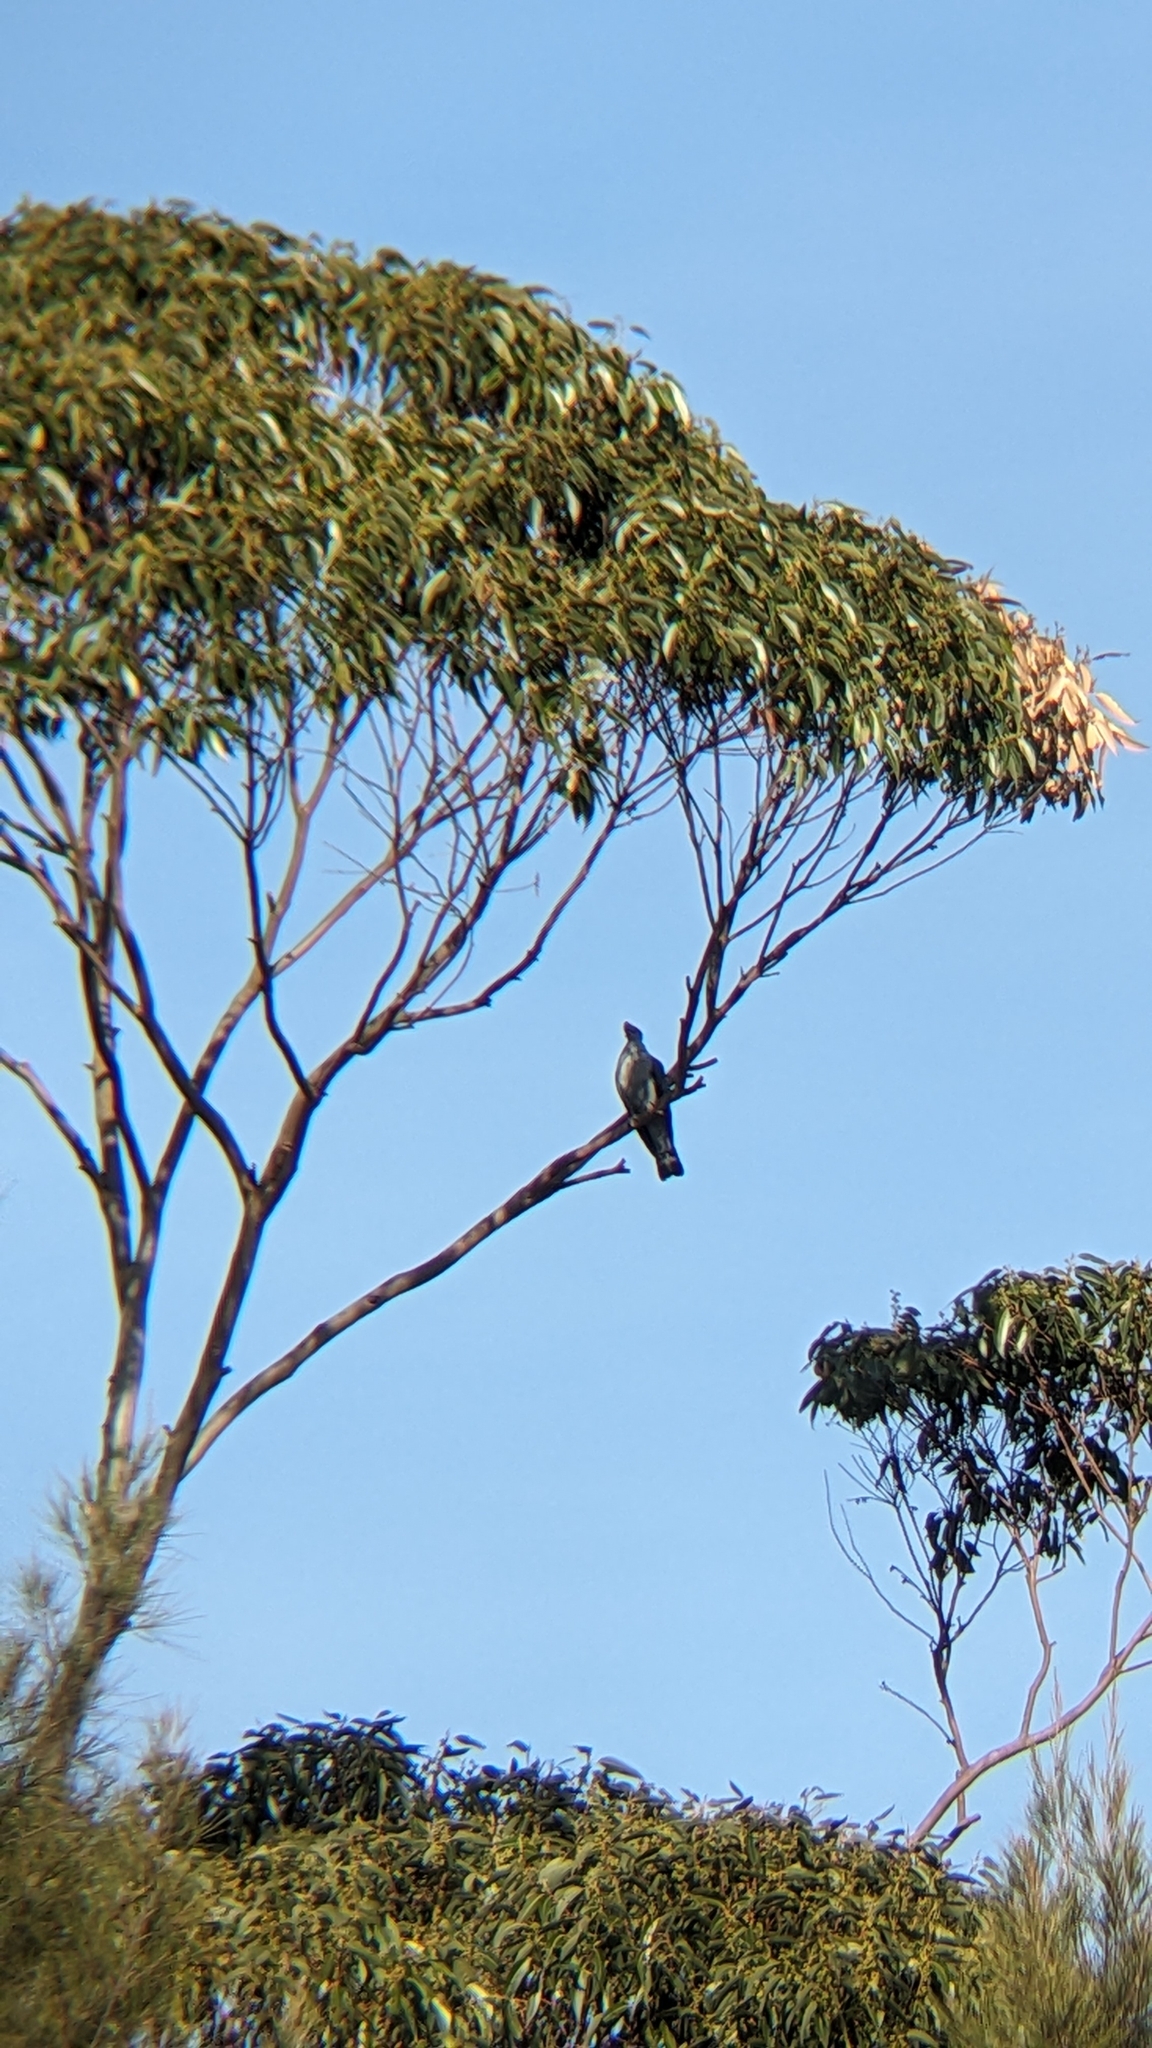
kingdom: Animalia
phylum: Chordata
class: Aves
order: Columbiformes
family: Columbidae
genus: Lopholaimus
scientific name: Lopholaimus antarcticus
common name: Topknot pigeon
